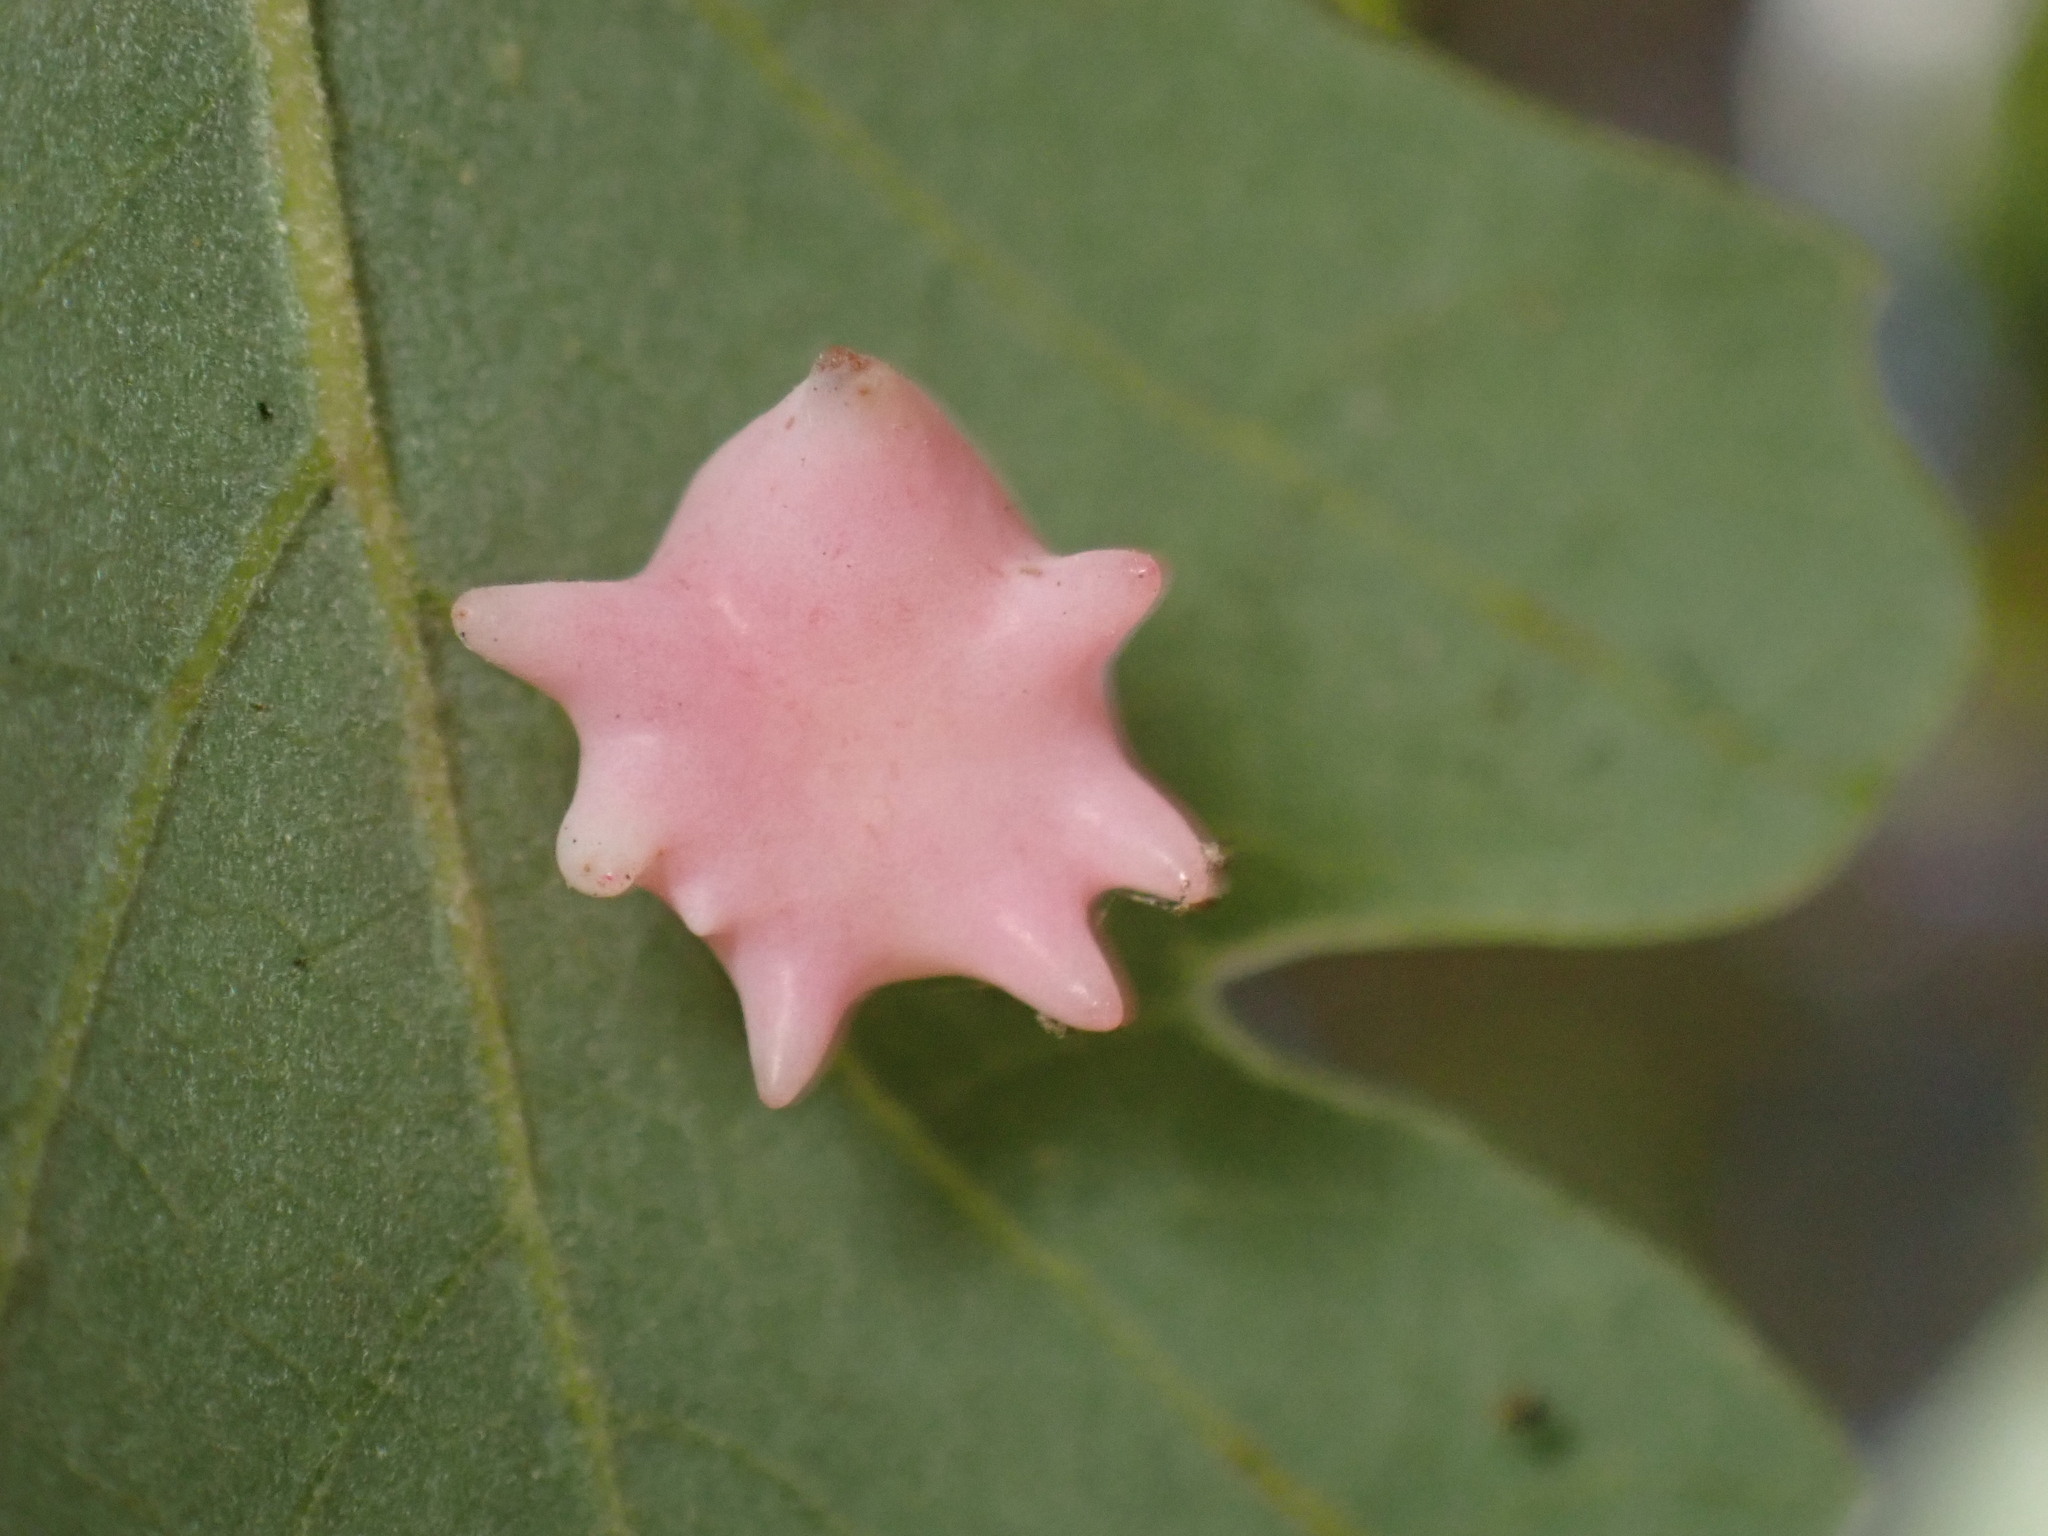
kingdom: Animalia
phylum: Arthropoda
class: Insecta
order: Hymenoptera
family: Cynipidae
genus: Cynips
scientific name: Cynips douglasi
